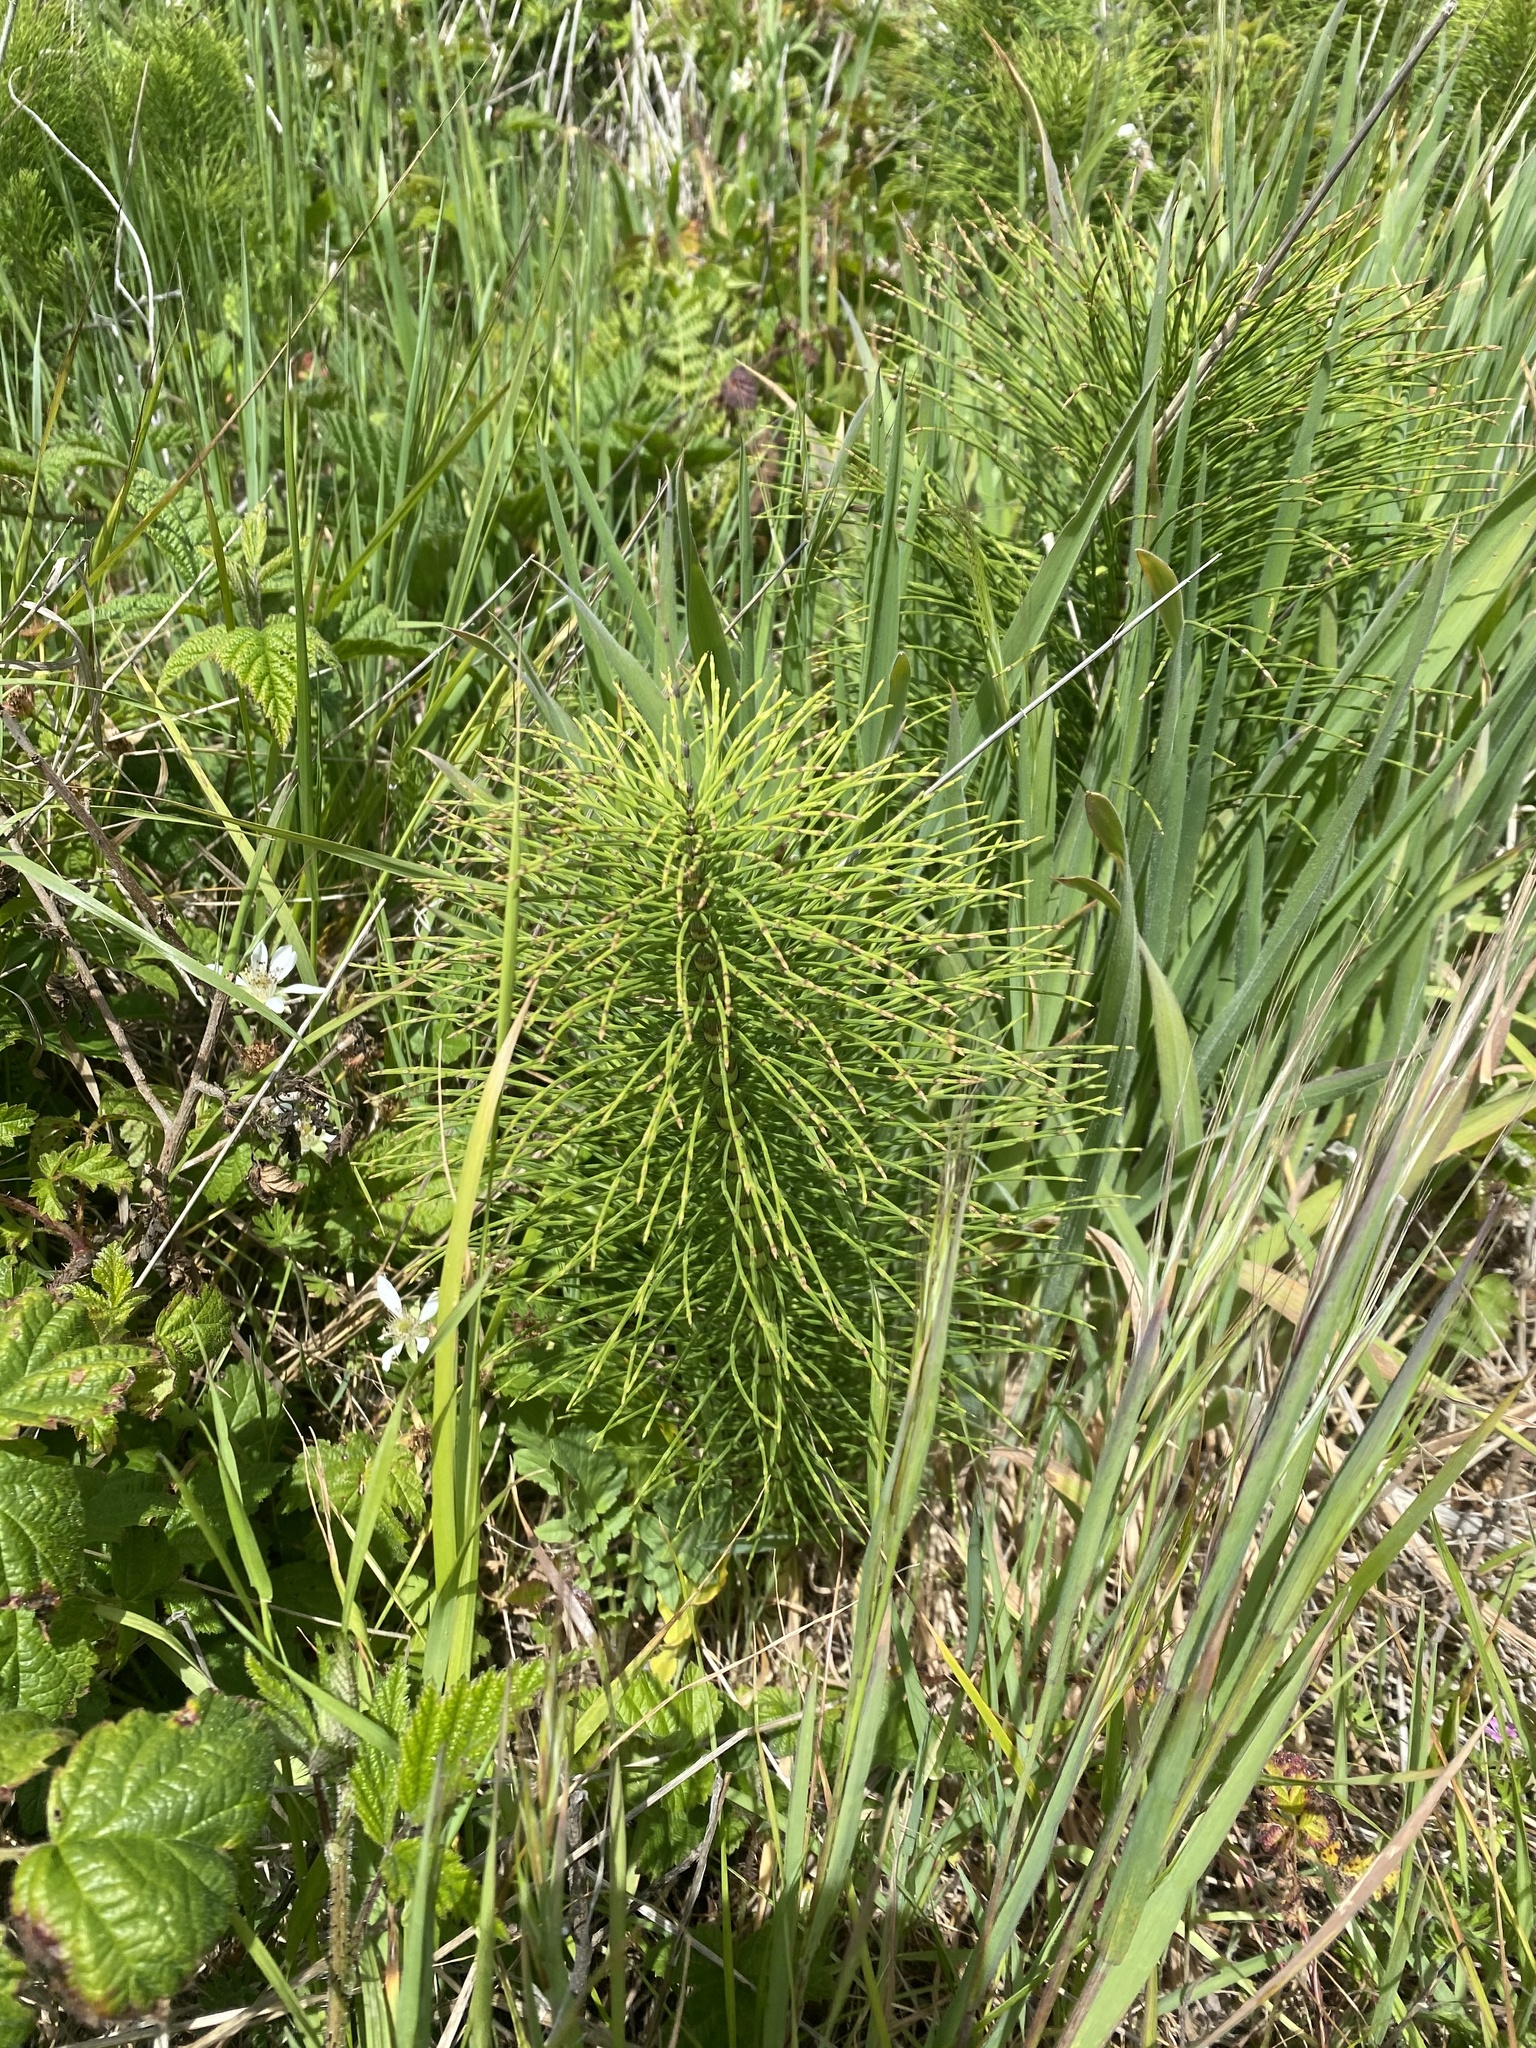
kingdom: Plantae
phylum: Tracheophyta
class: Polypodiopsida
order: Equisetales
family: Equisetaceae
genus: Equisetum
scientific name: Equisetum telmateia
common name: Great horsetail
